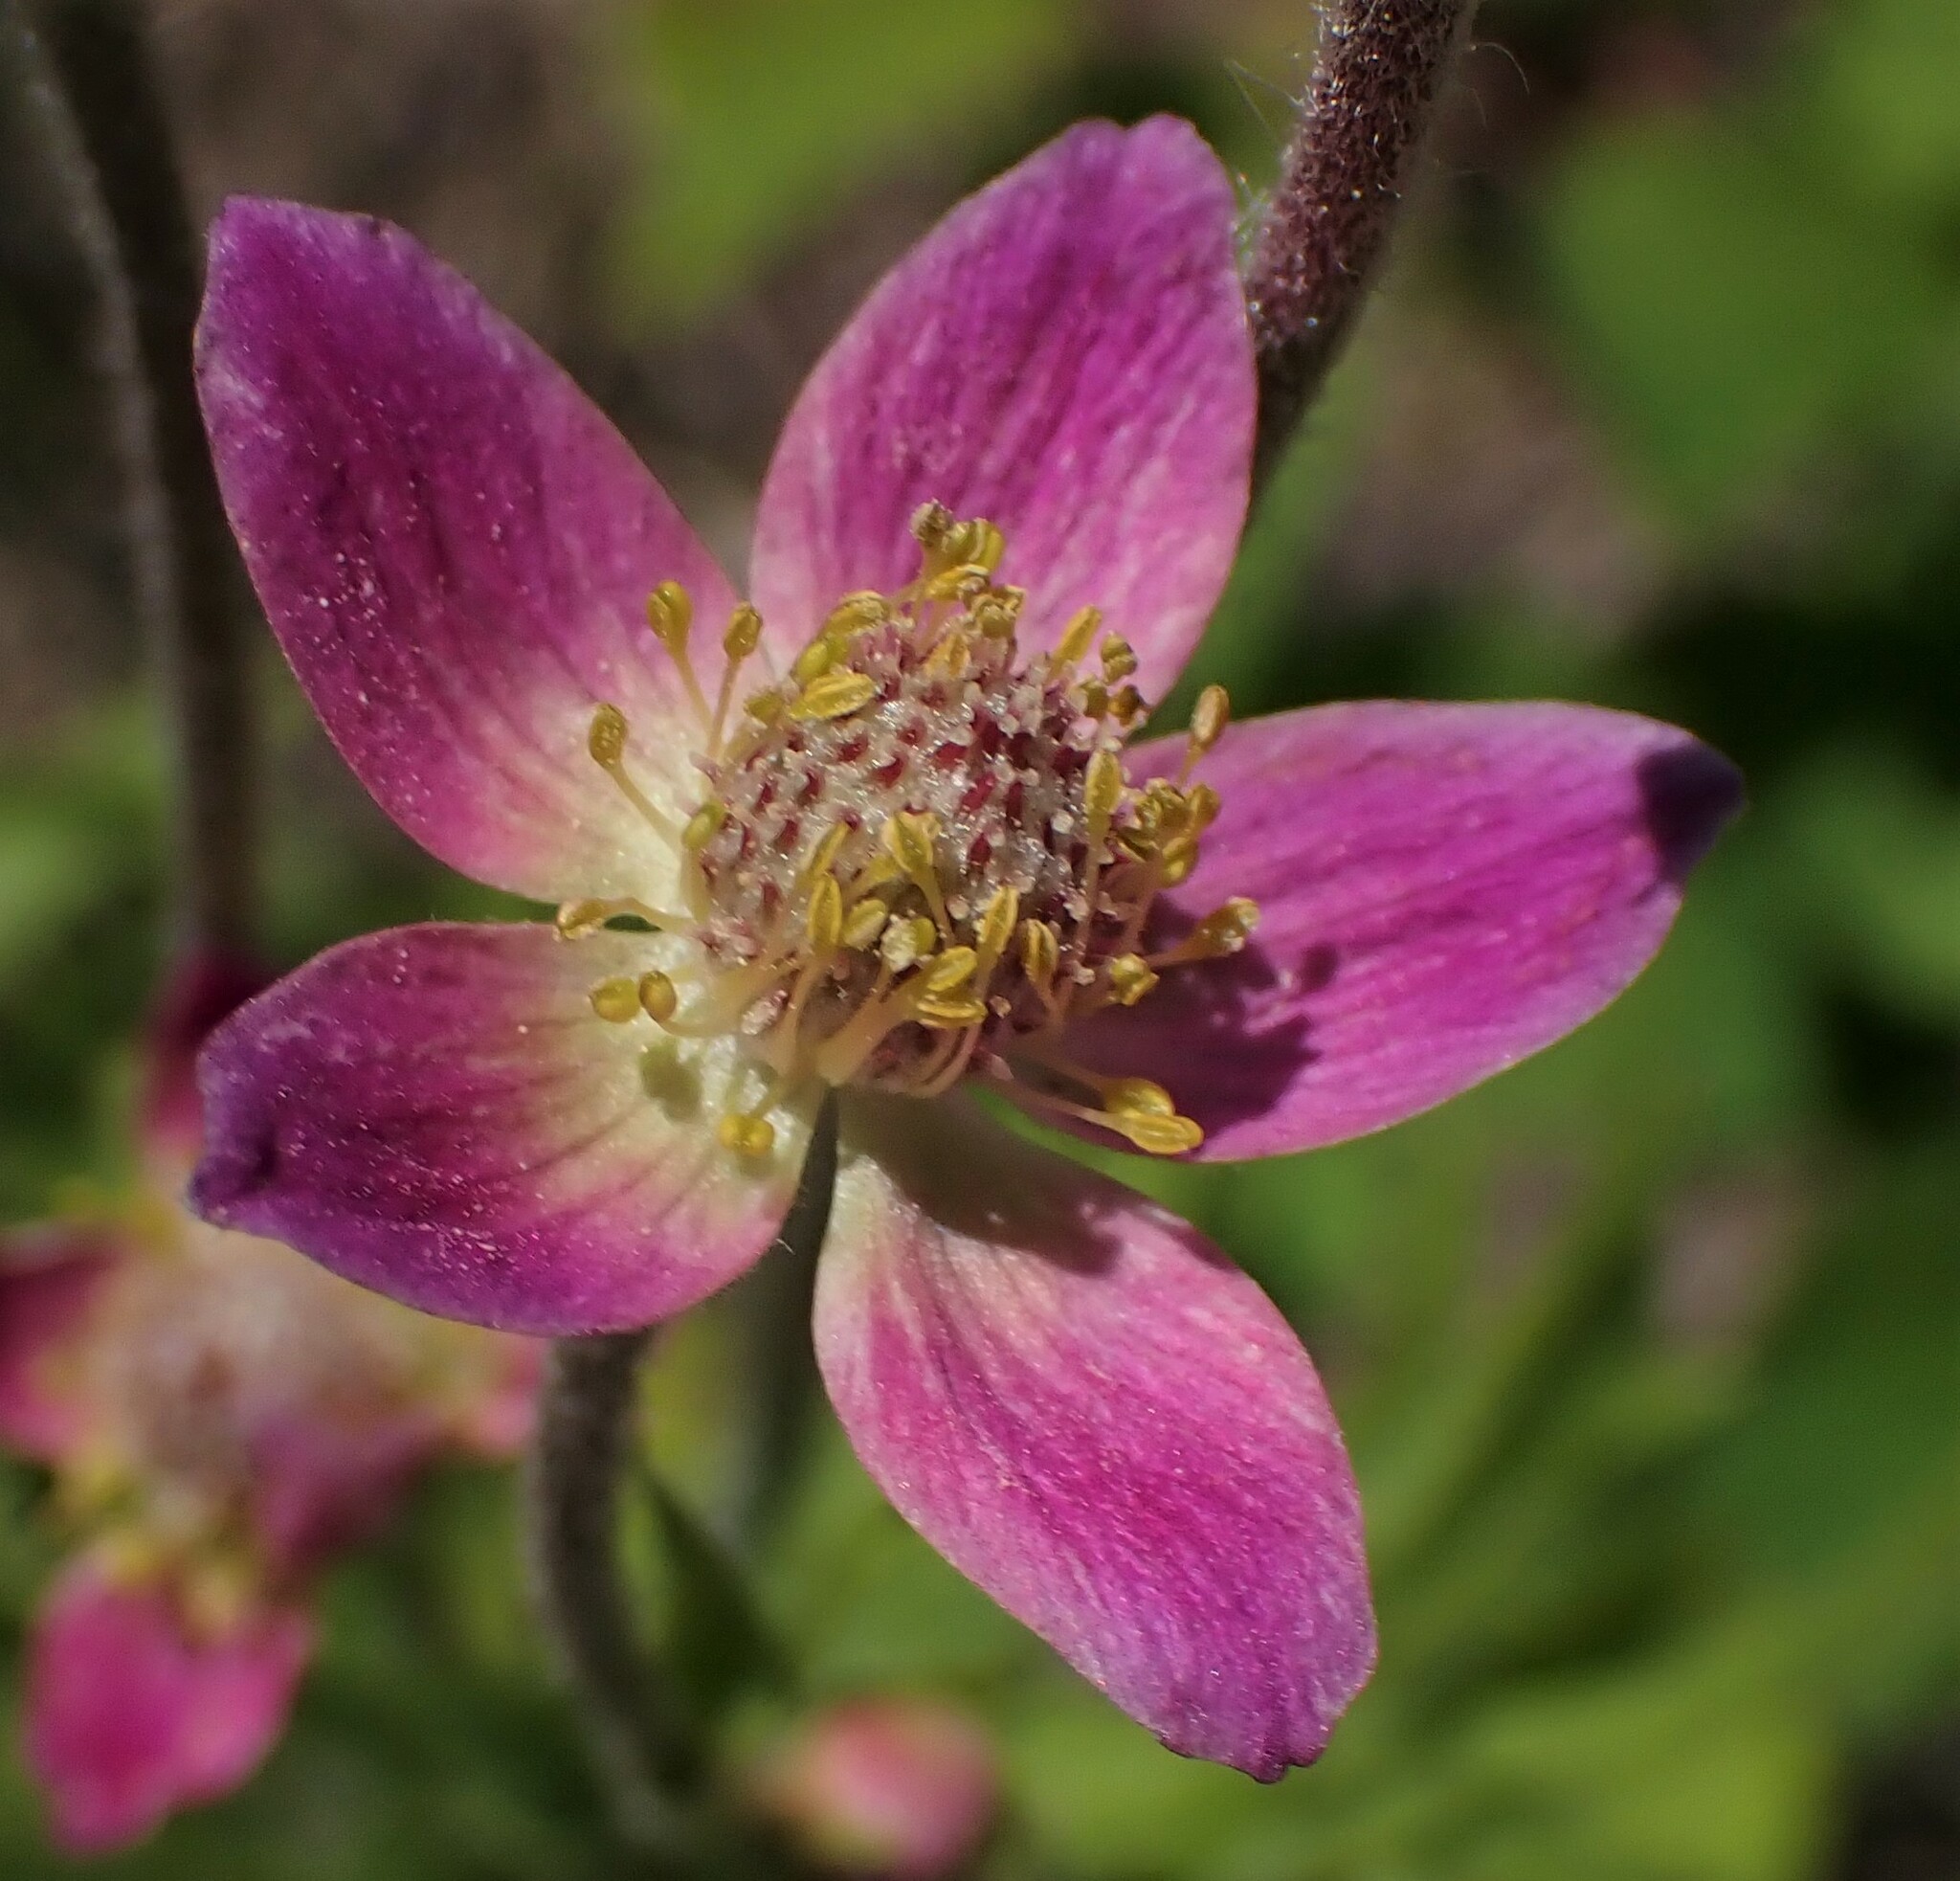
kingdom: Plantae
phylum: Tracheophyta
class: Magnoliopsida
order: Ranunculales
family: Ranunculaceae
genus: Anemone
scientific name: Anemone multifida
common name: Bird's-foot anemone
